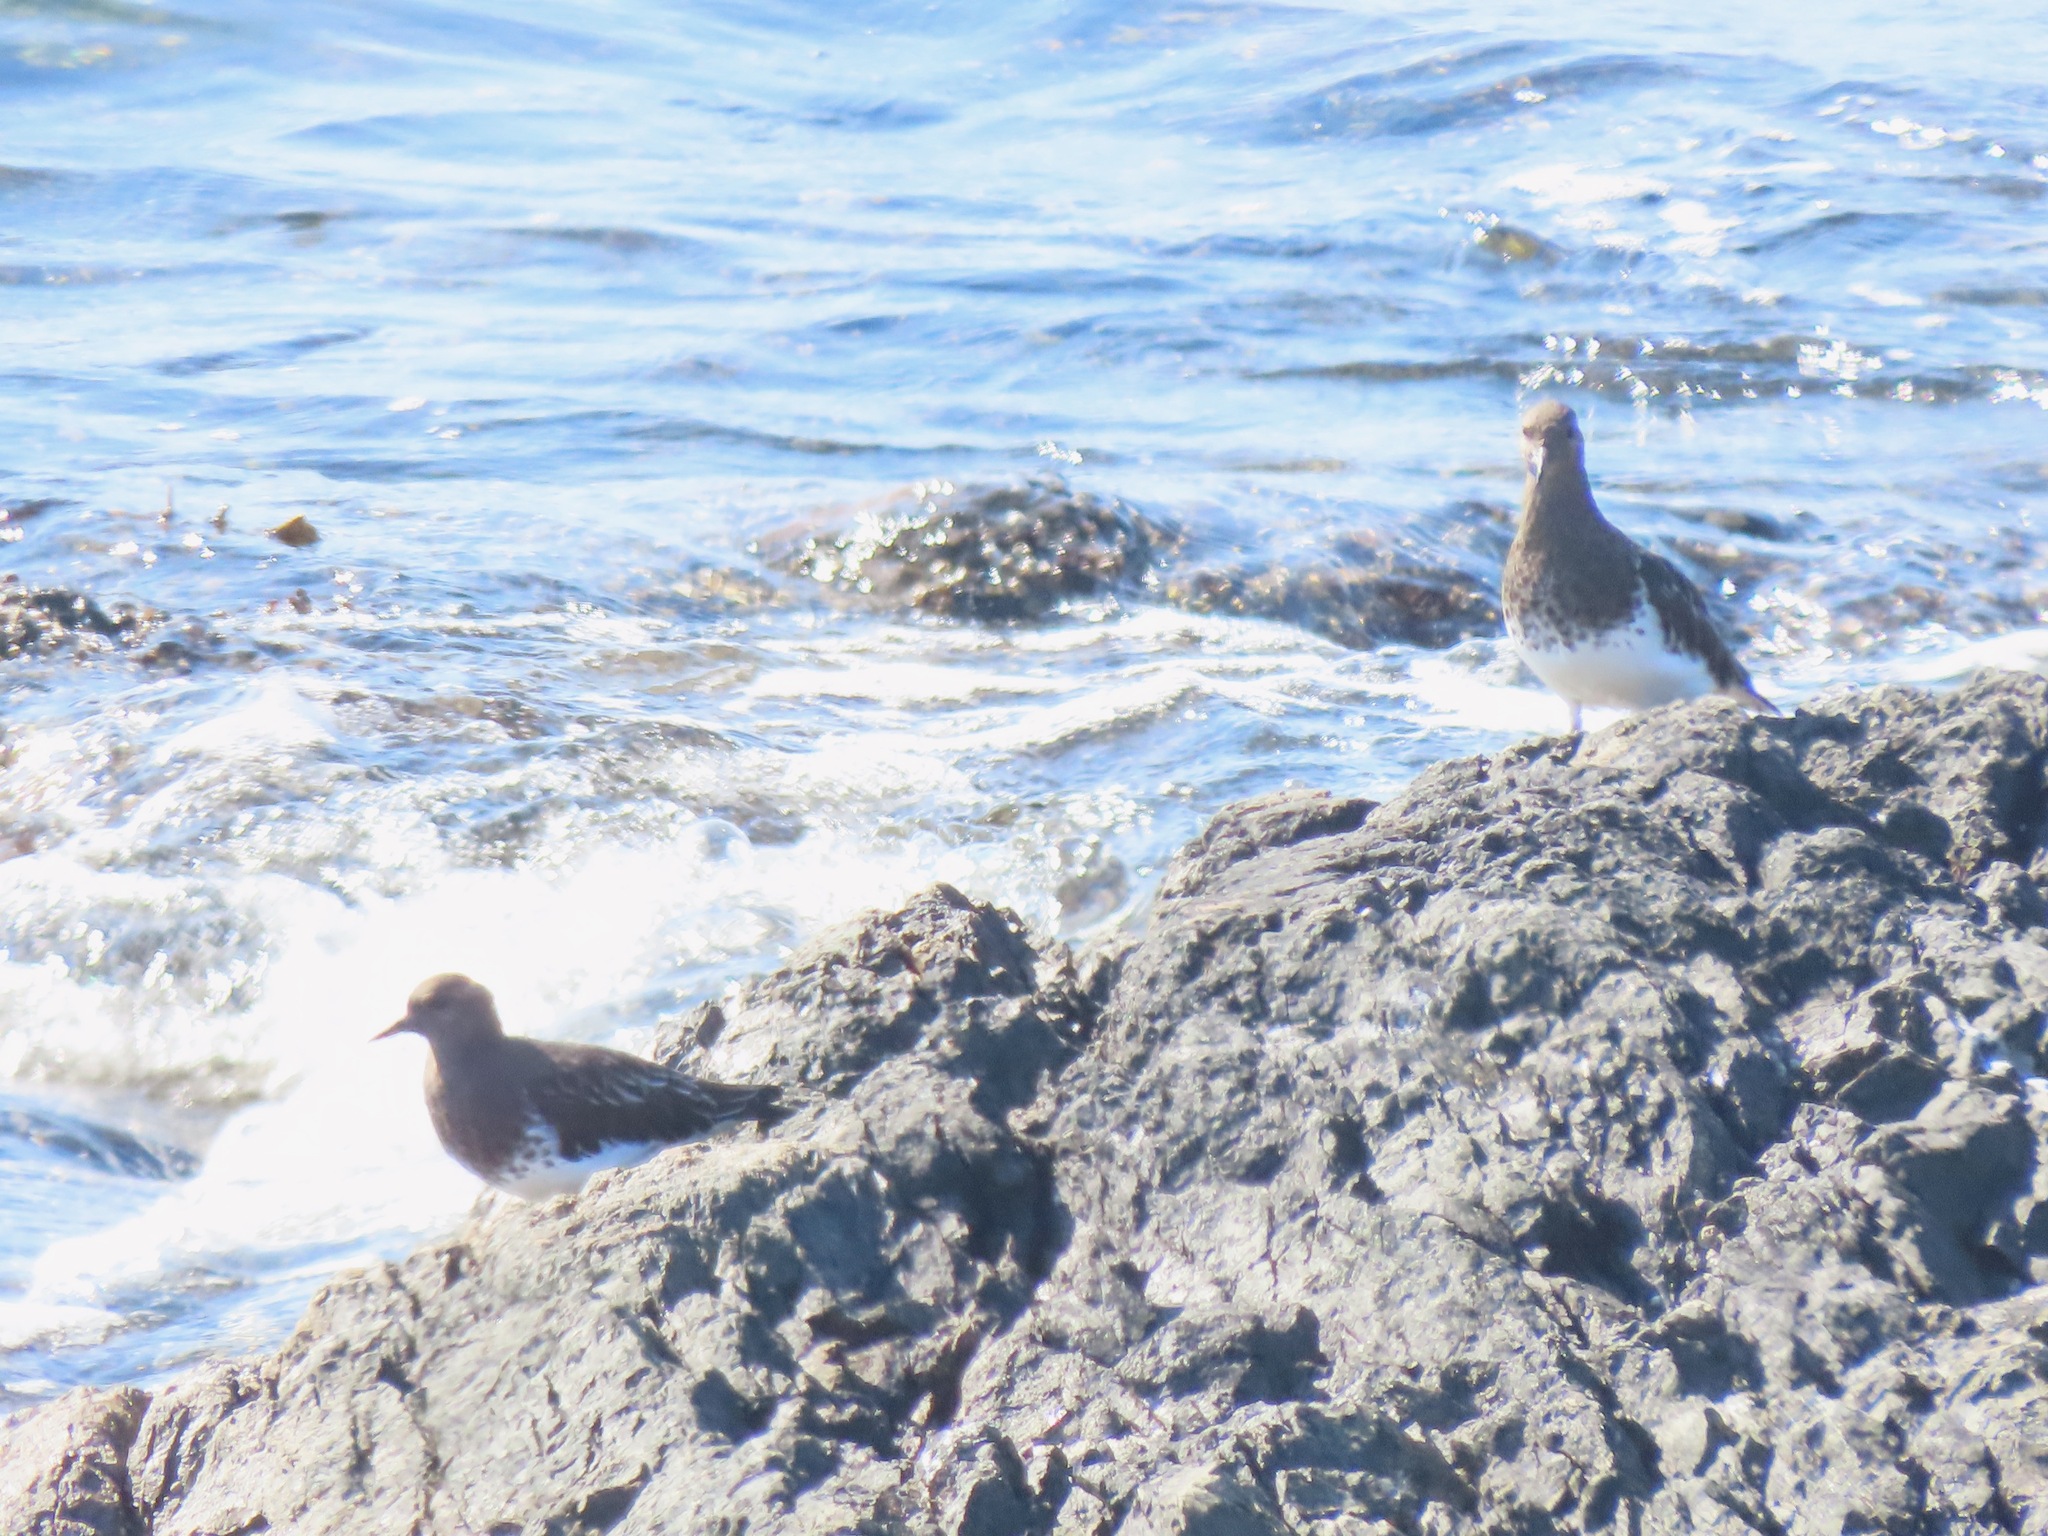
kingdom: Animalia
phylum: Chordata
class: Aves
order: Charadriiformes
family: Scolopacidae
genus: Arenaria
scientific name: Arenaria melanocephala
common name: Black turnstone
